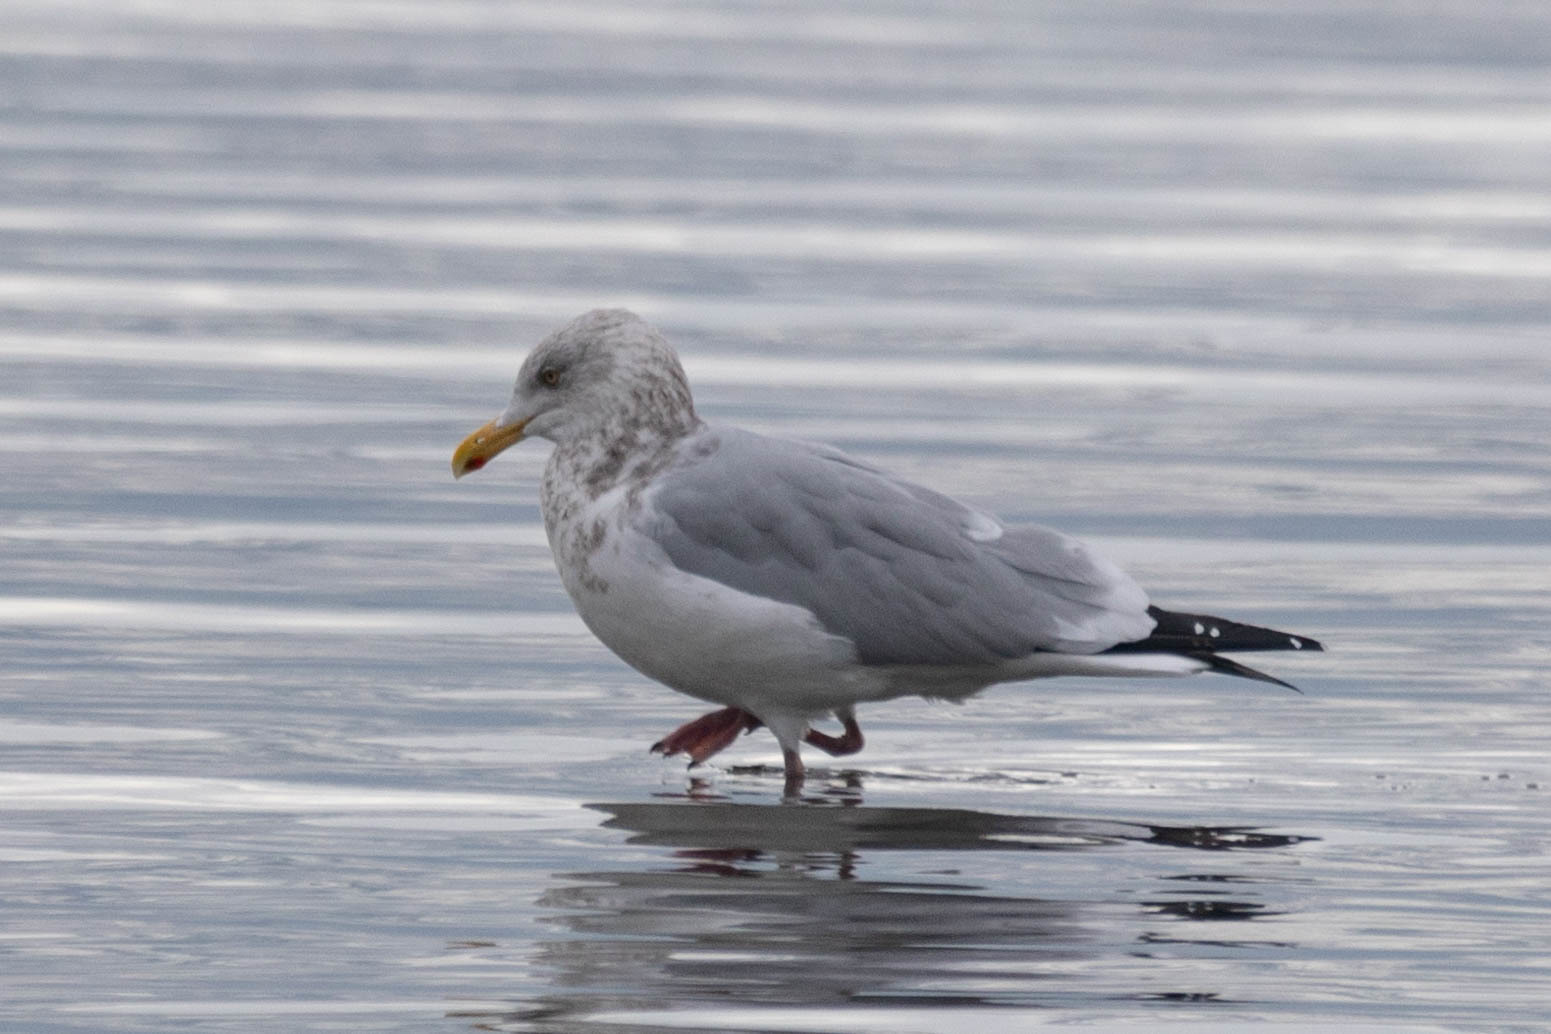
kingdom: Animalia
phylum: Chordata
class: Aves
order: Charadriiformes
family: Laridae
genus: Larus
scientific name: Larus argentatus
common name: Herring gull
